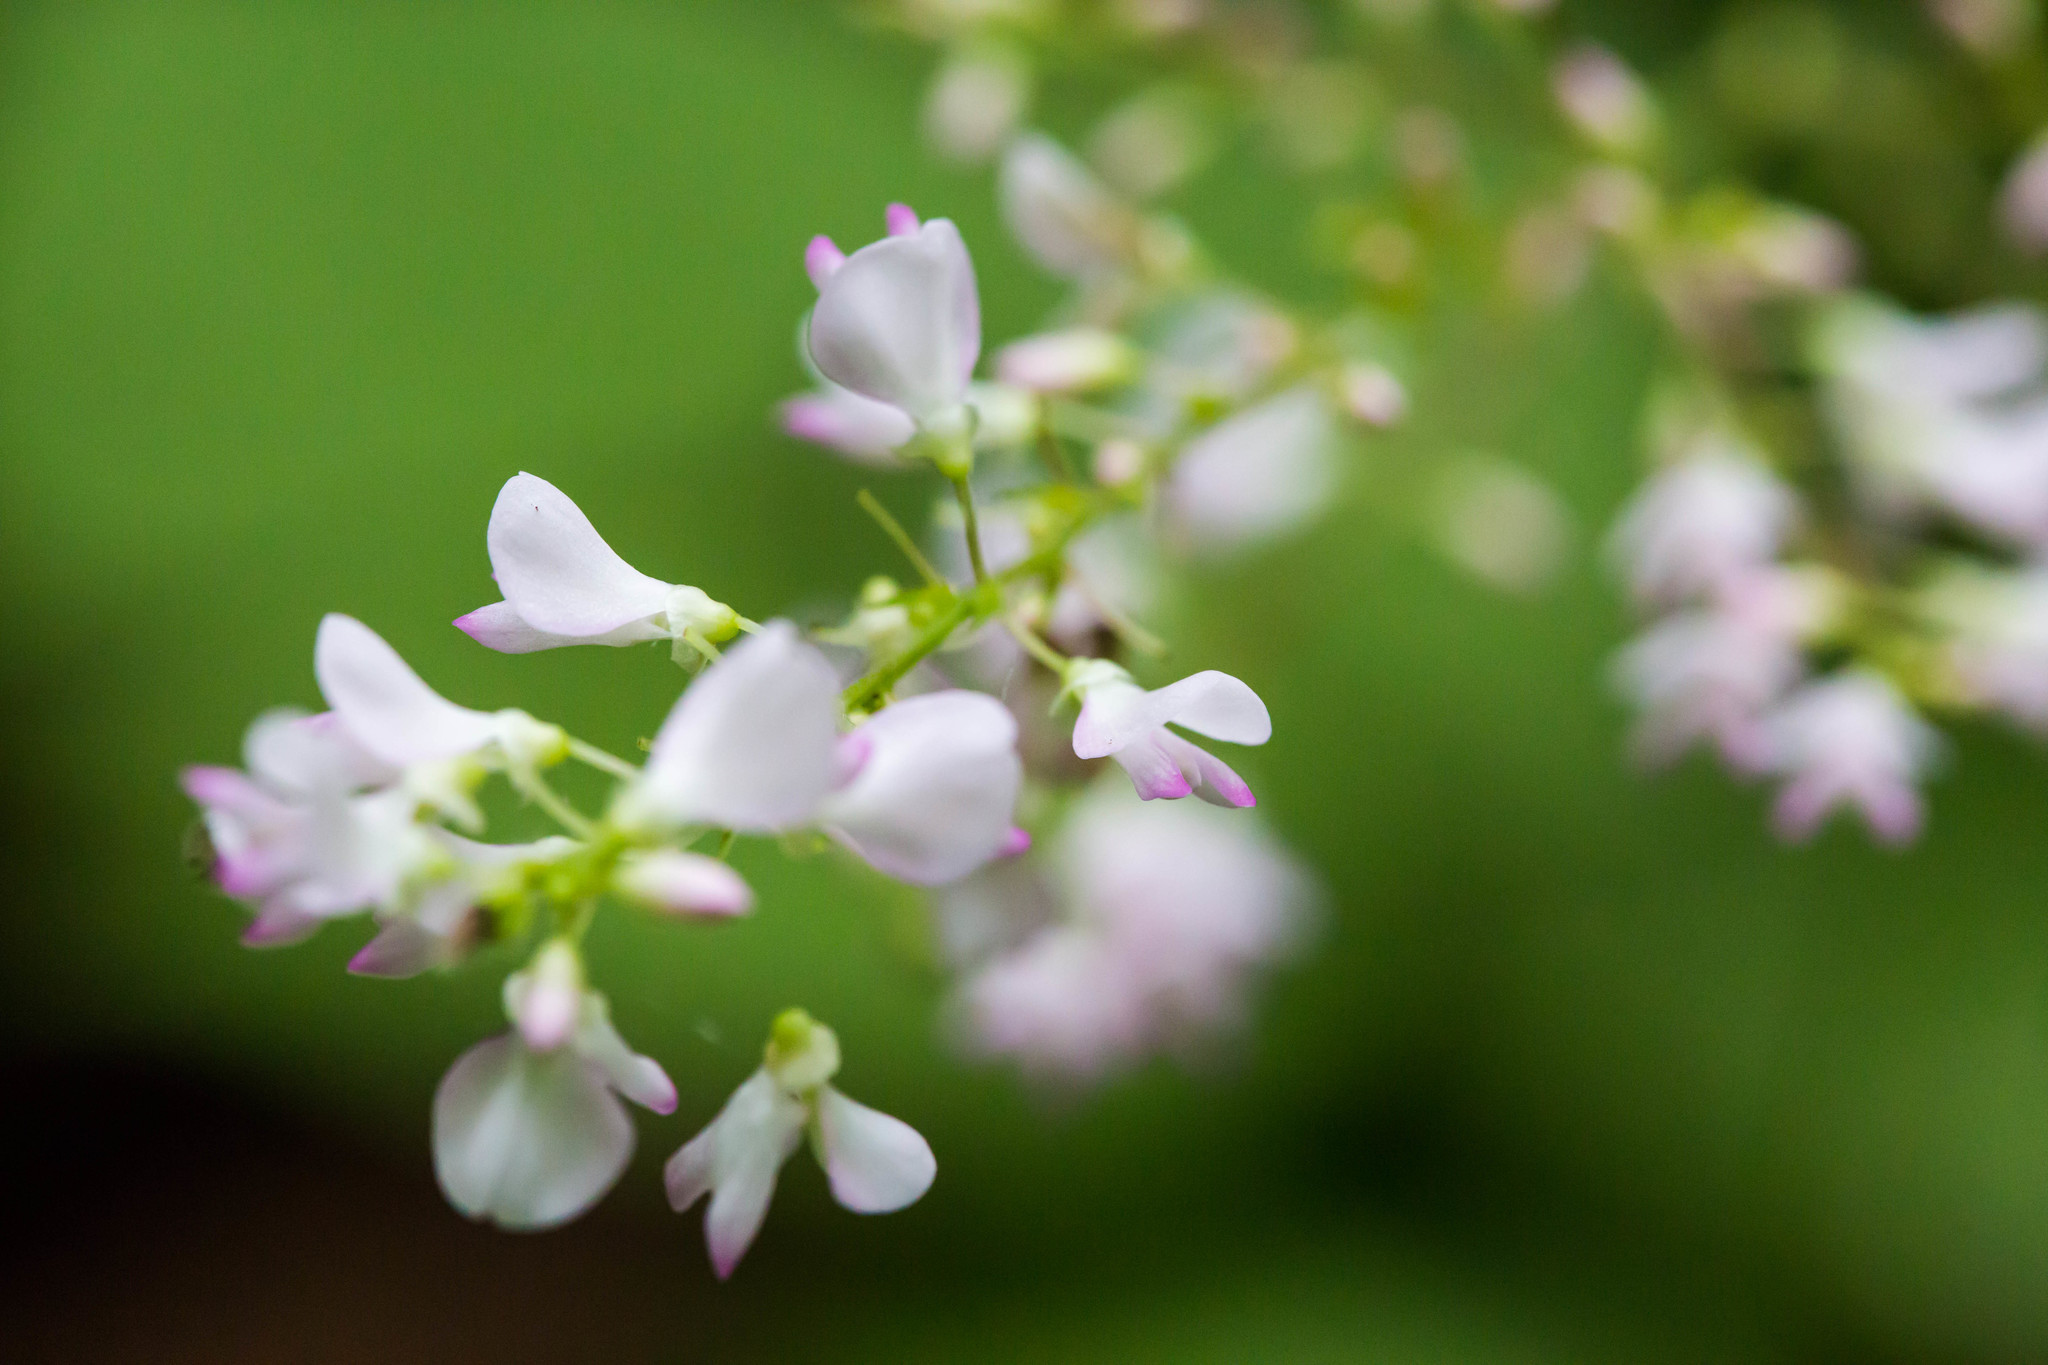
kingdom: Plantae
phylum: Tracheophyta
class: Magnoliopsida
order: Fabales
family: Fabaceae
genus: Hylodesmum
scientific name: Hylodesmum glutinosum
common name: Clustered-leaved tick-trefoil
